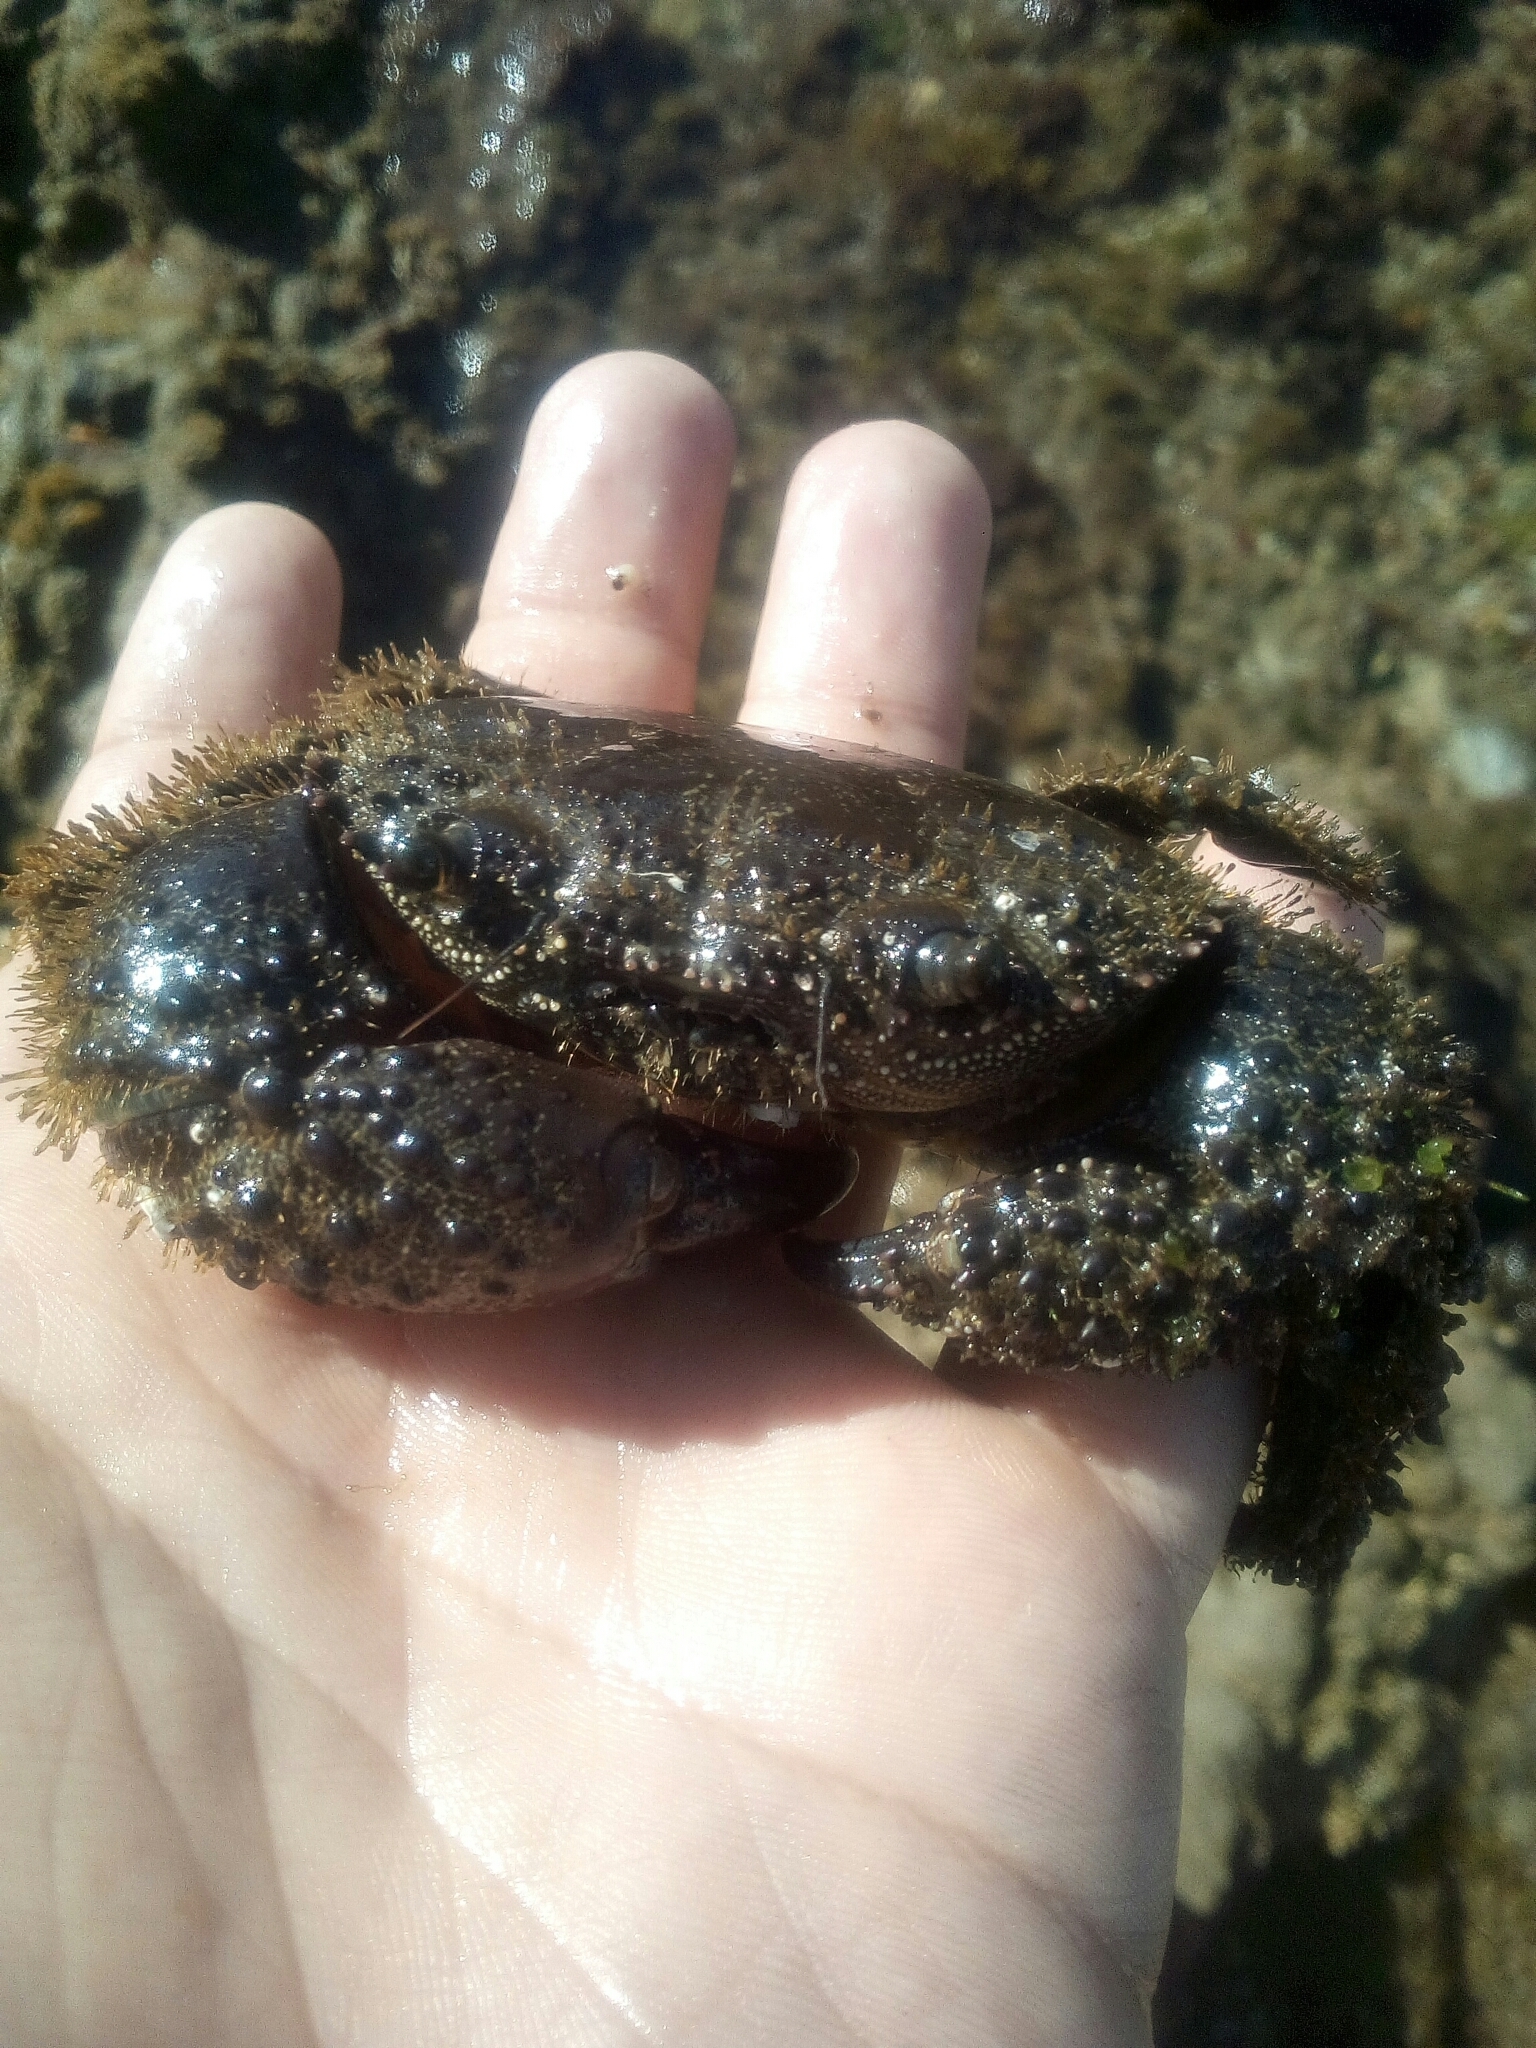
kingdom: Animalia
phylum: Arthropoda
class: Malacostraca
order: Decapoda
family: Eriphiidae
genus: Eriphia
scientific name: Eriphia verrucosa
